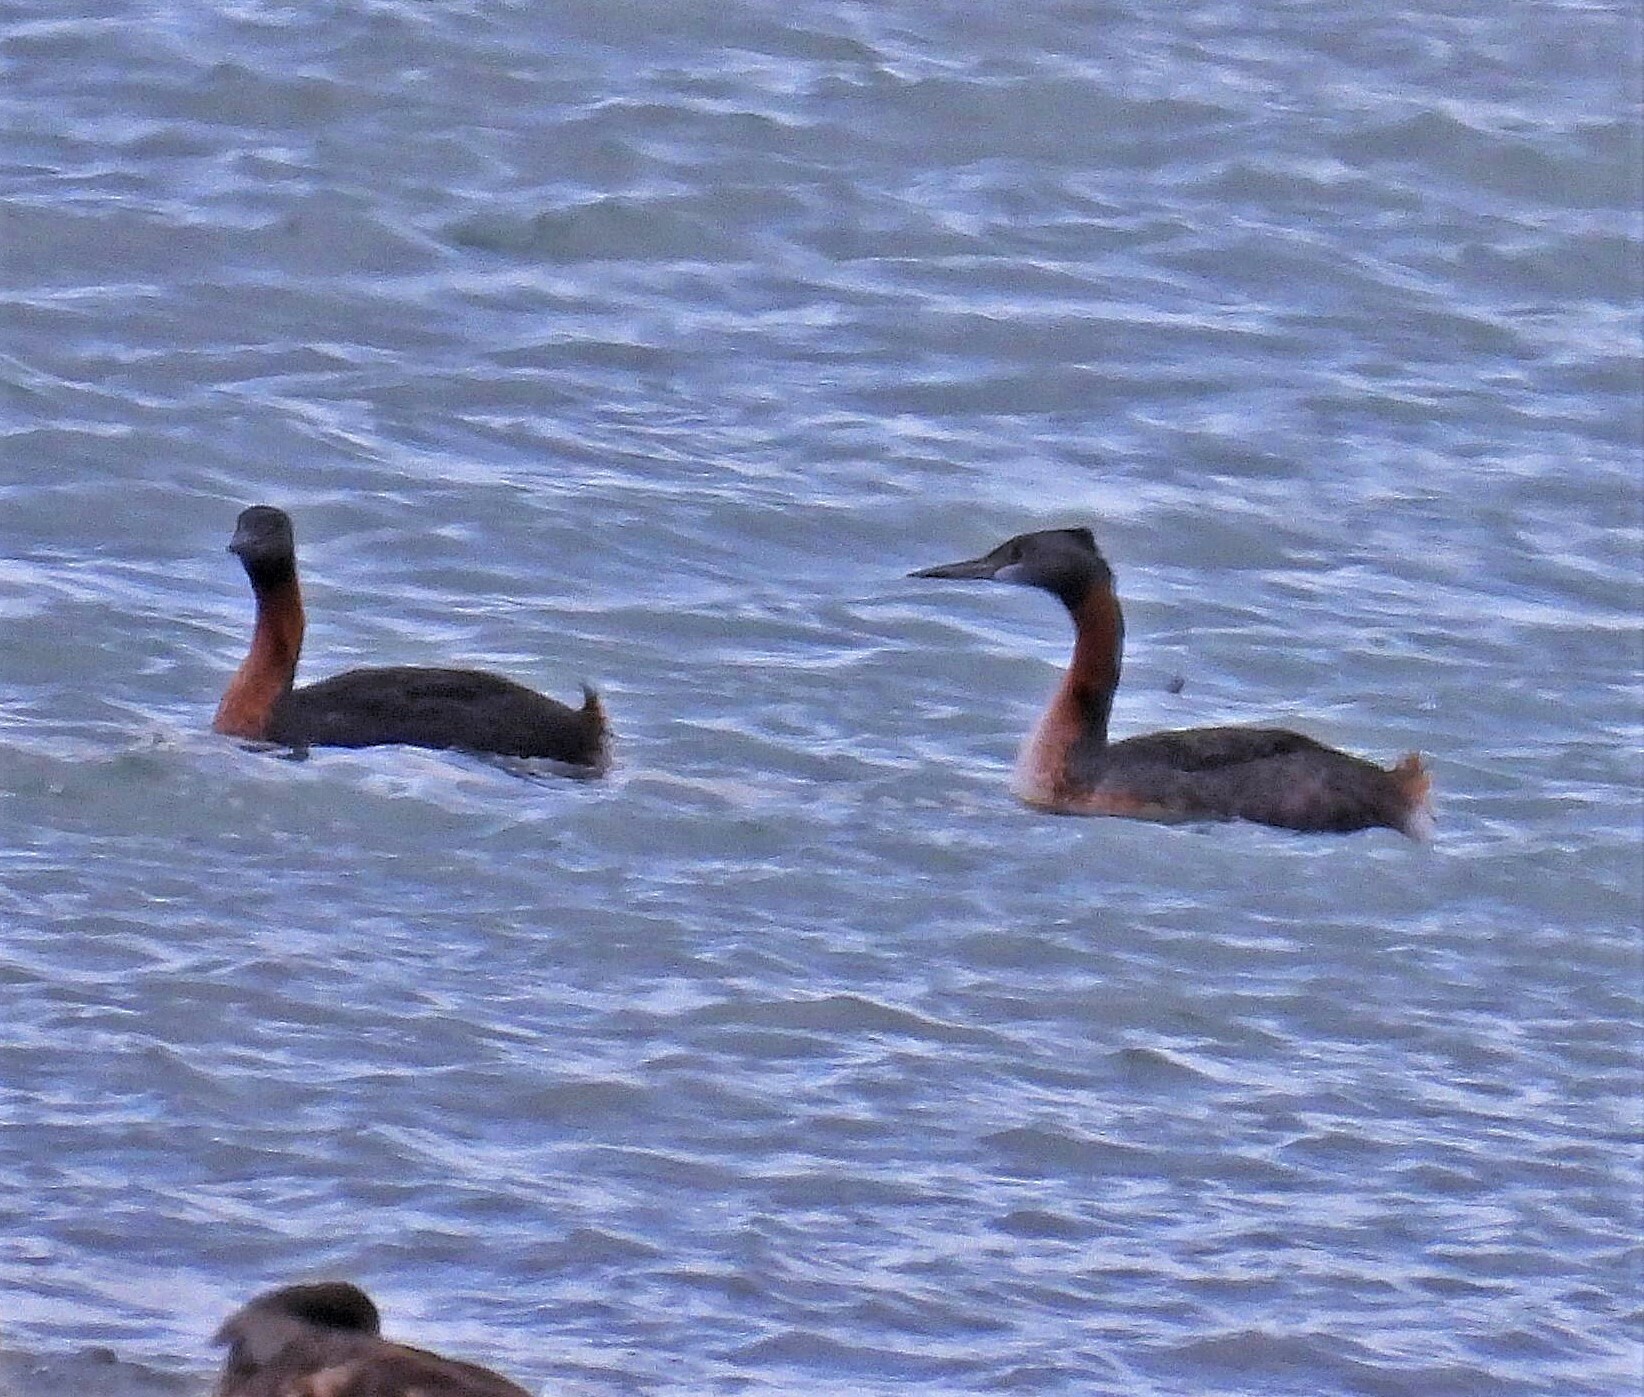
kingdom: Animalia
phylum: Chordata
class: Aves
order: Podicipediformes
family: Podicipedidae
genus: Podiceps
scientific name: Podiceps major
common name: Great grebe
